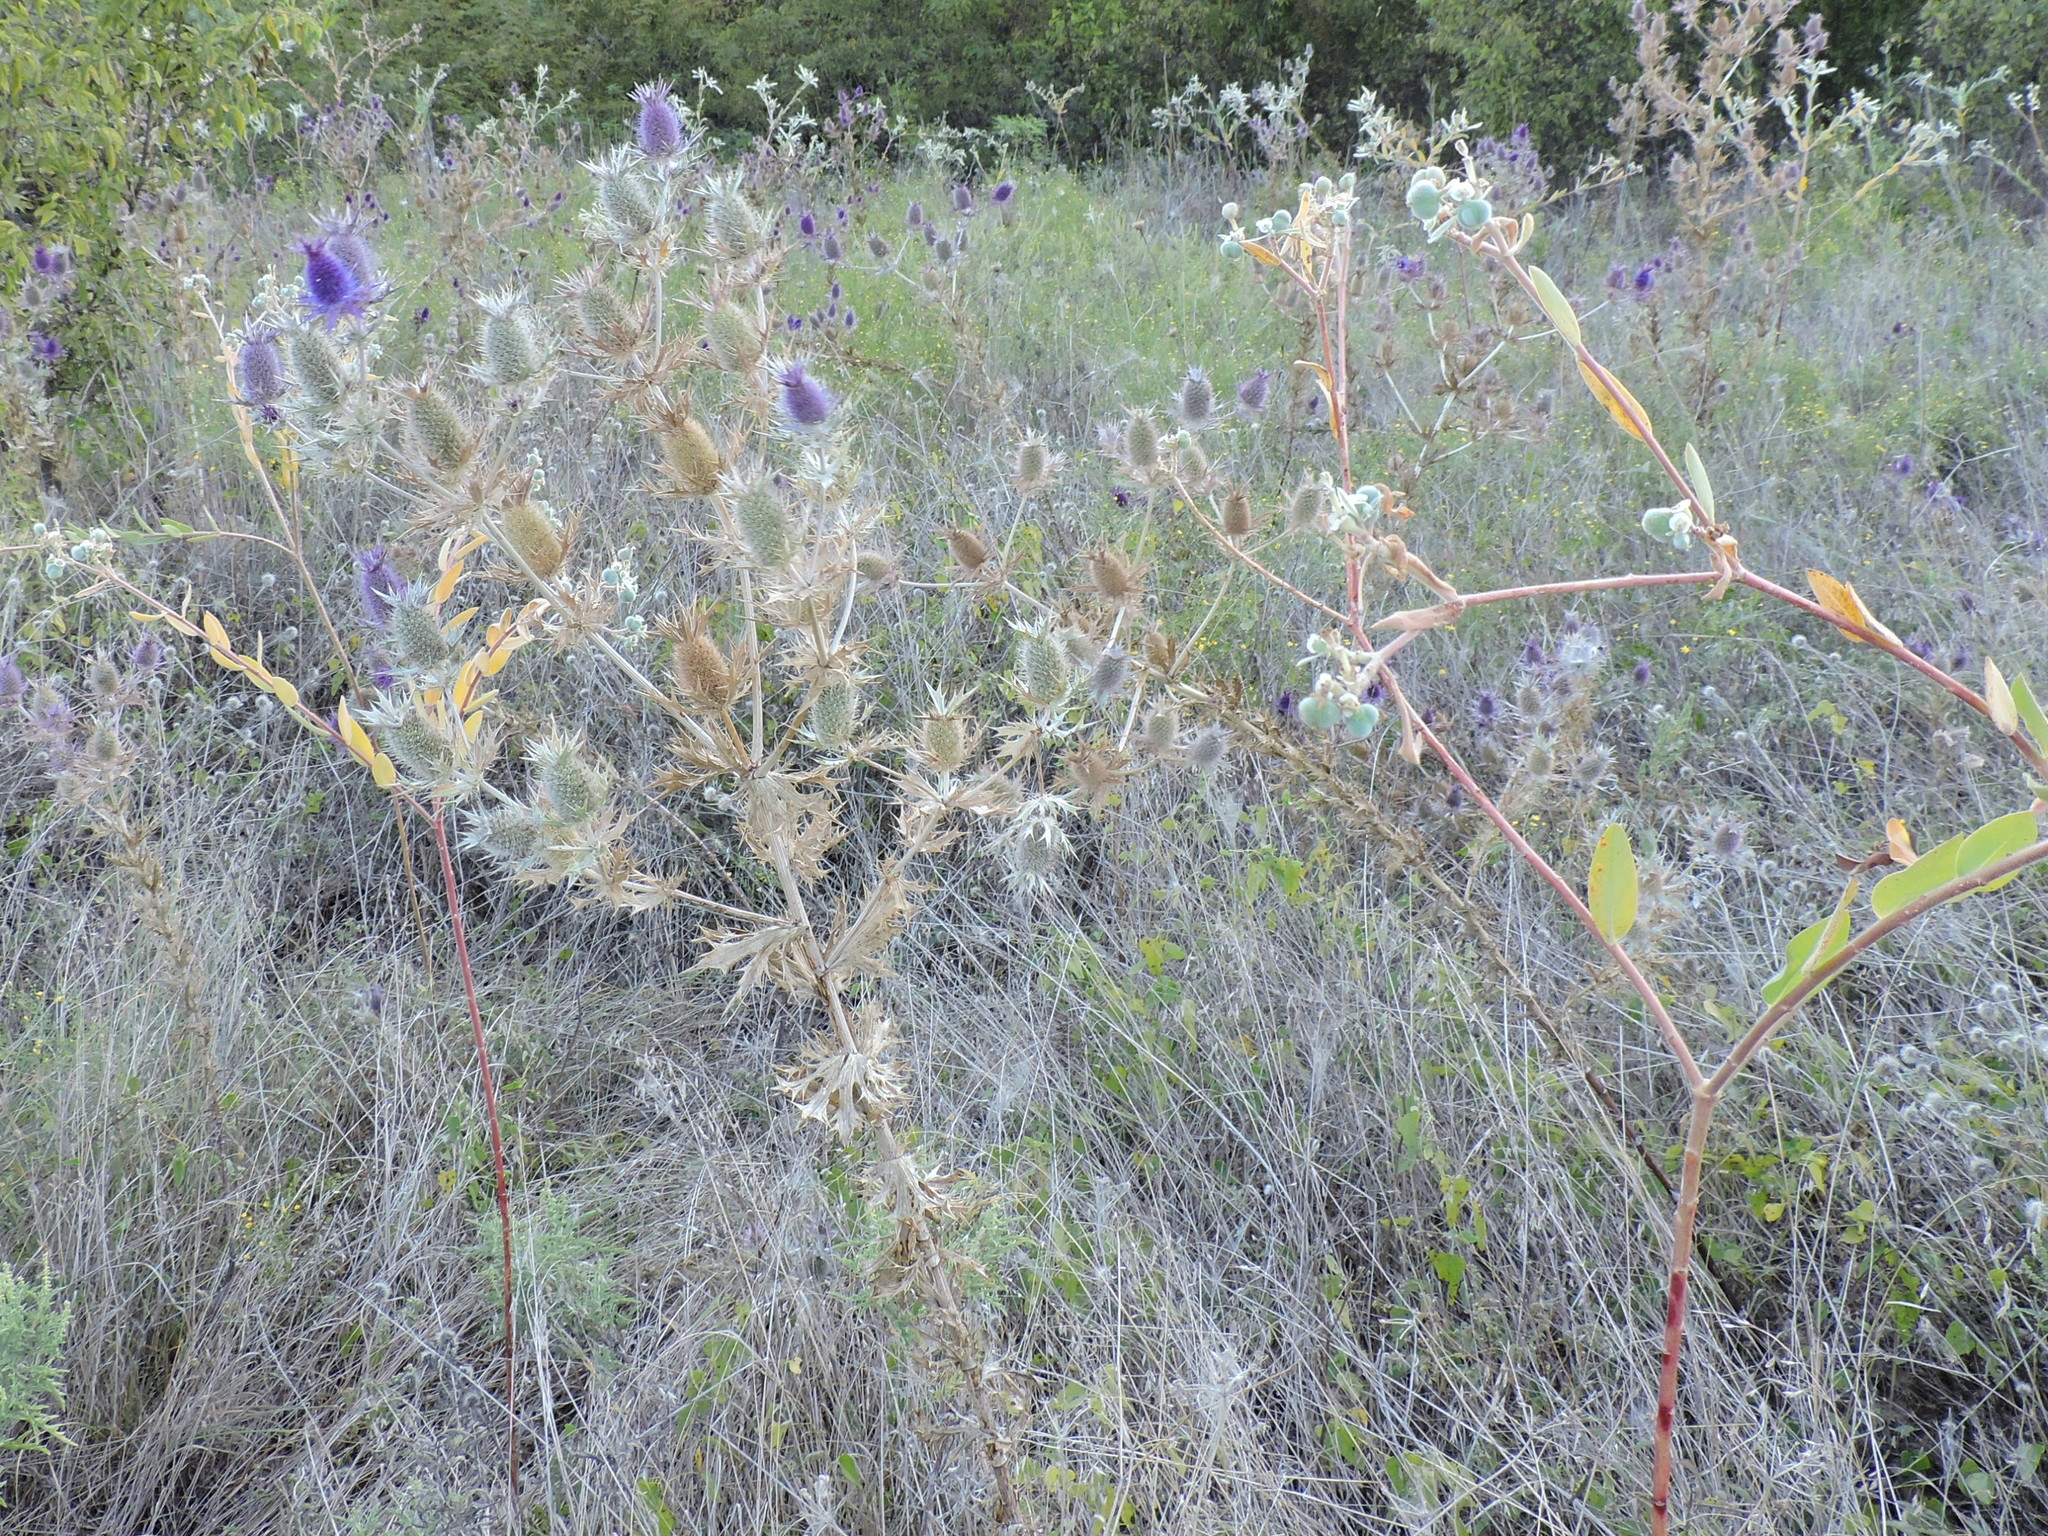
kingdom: Plantae
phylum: Tracheophyta
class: Magnoliopsida
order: Apiales
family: Apiaceae
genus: Eryngium
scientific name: Eryngium leavenworthii
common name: Leavenworth's eryngo
